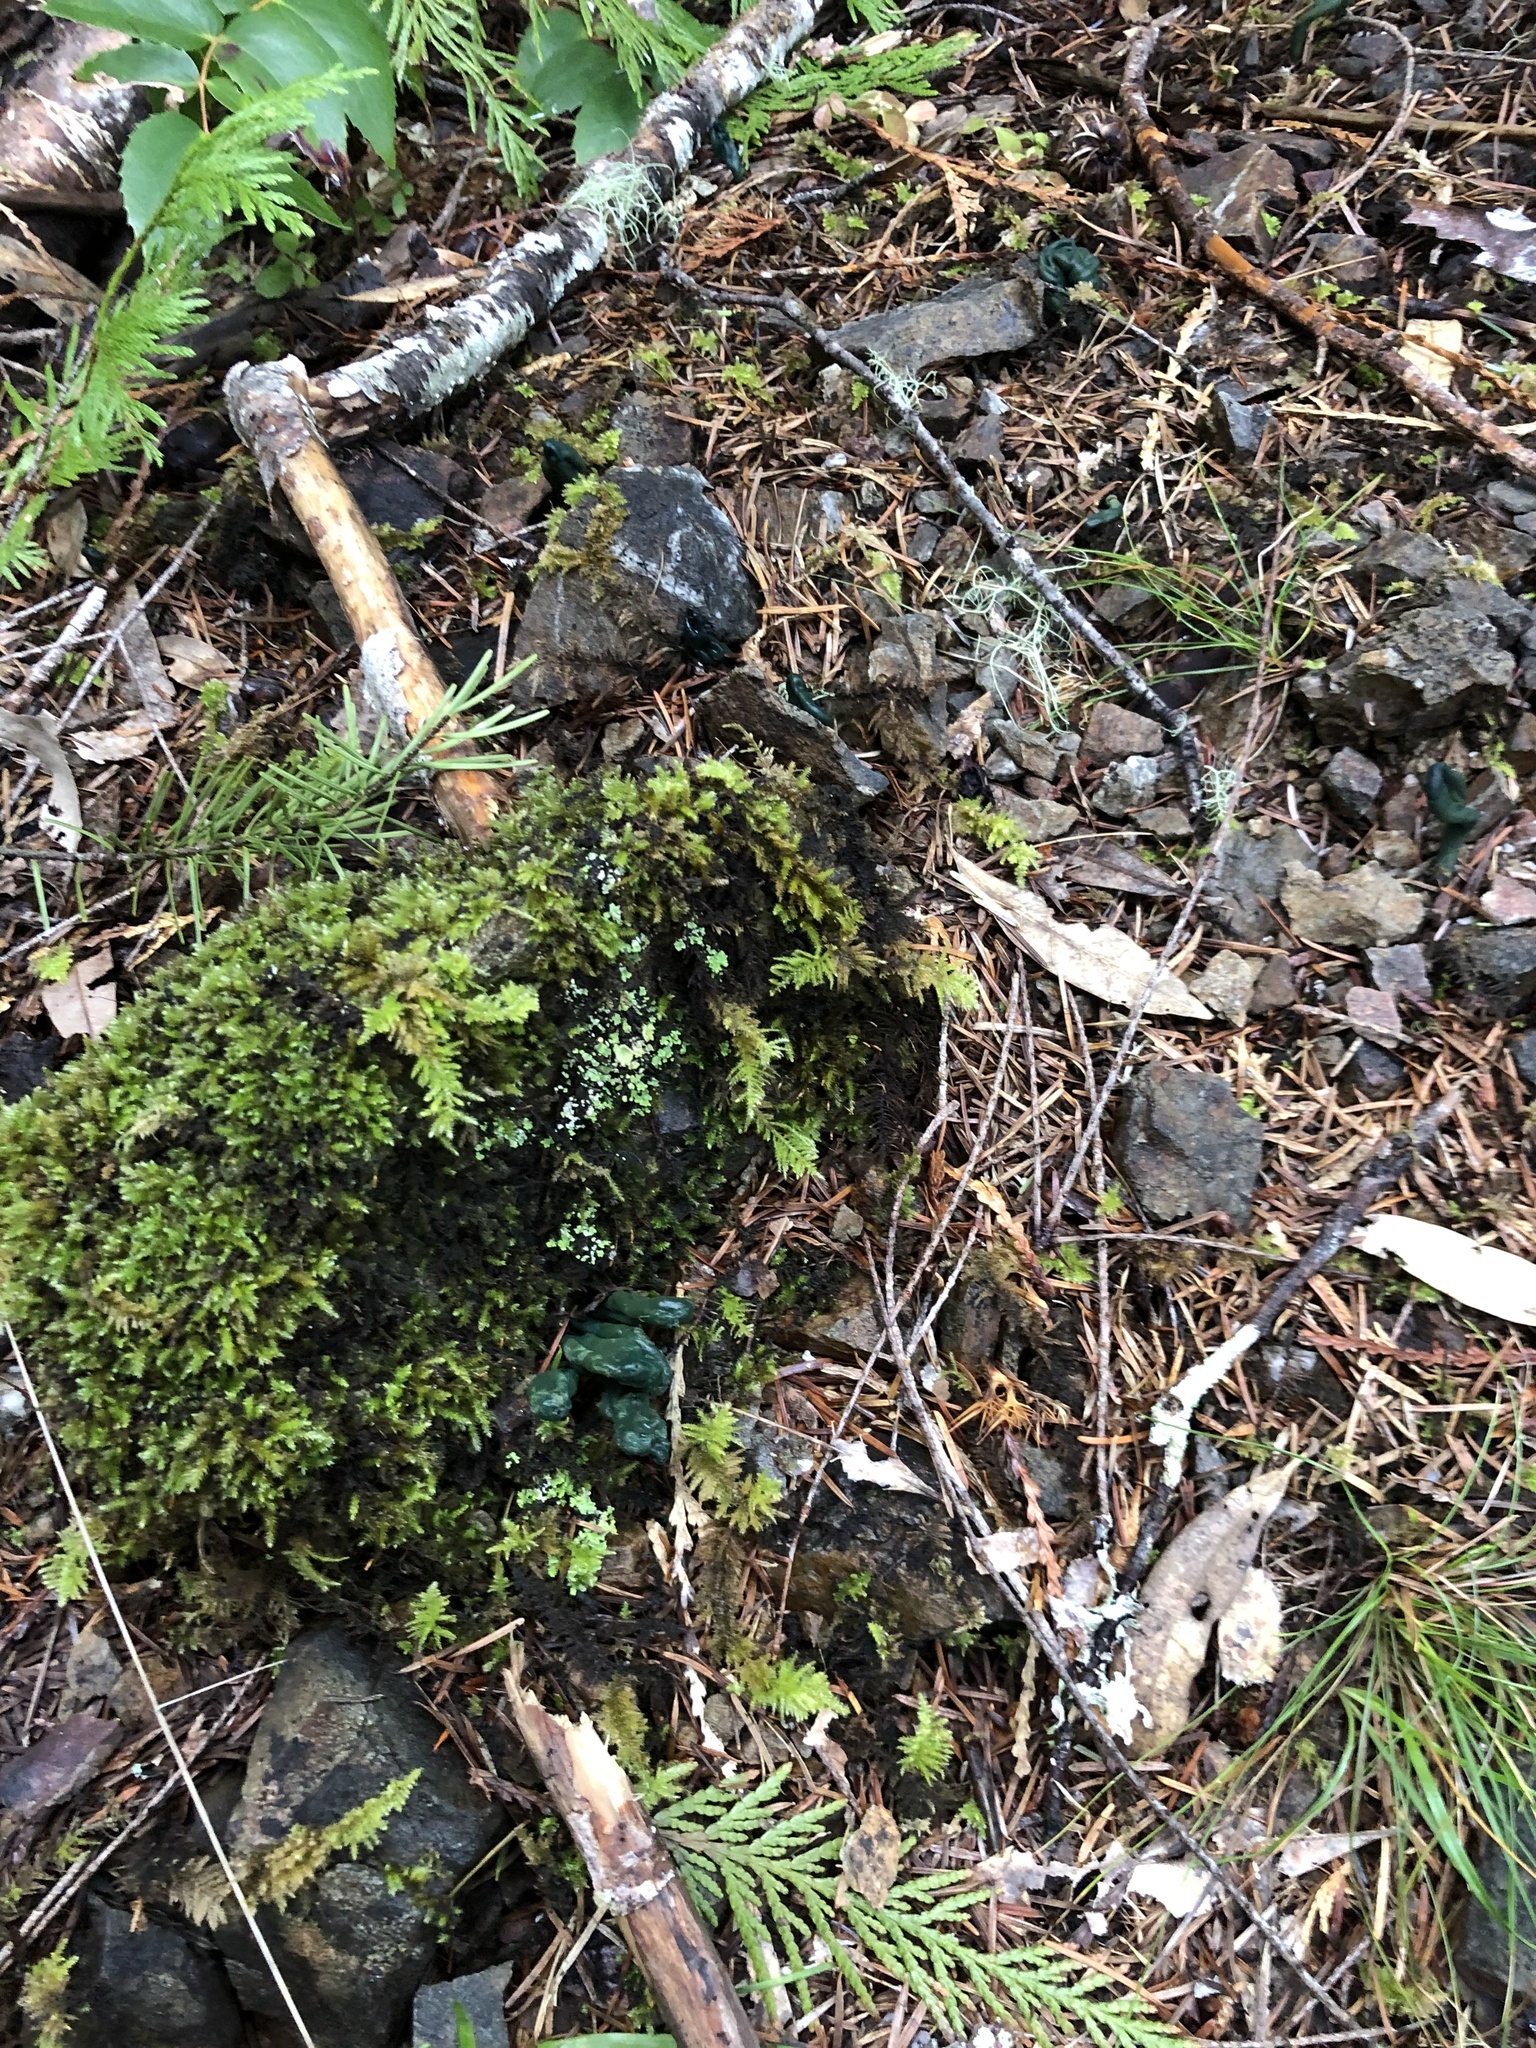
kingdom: Fungi
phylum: Ascomycota
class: Leotiomycetes
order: Leotiales
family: Leotiaceae
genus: Microglossum
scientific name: Microglossum viride
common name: Green earthtongue
